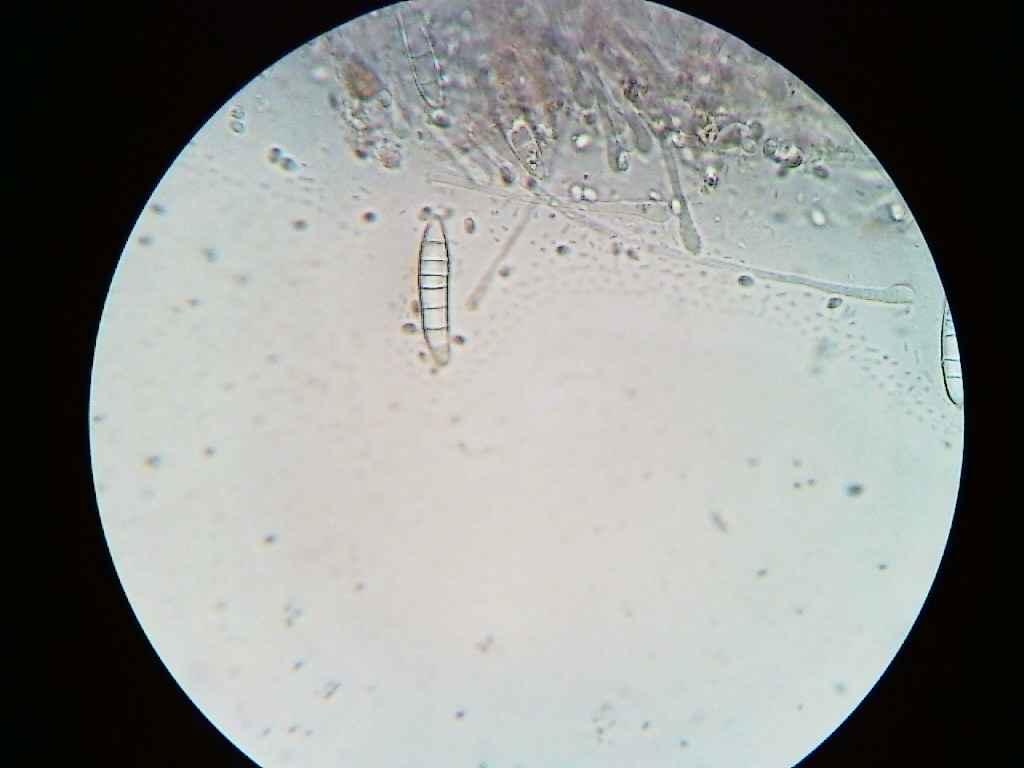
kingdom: Fungi
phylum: Ascomycota
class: Leotiomycetes
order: Helotiales
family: Gelatinodiscaceae
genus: Ascocoryne
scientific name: Ascocoryne cylichnium
